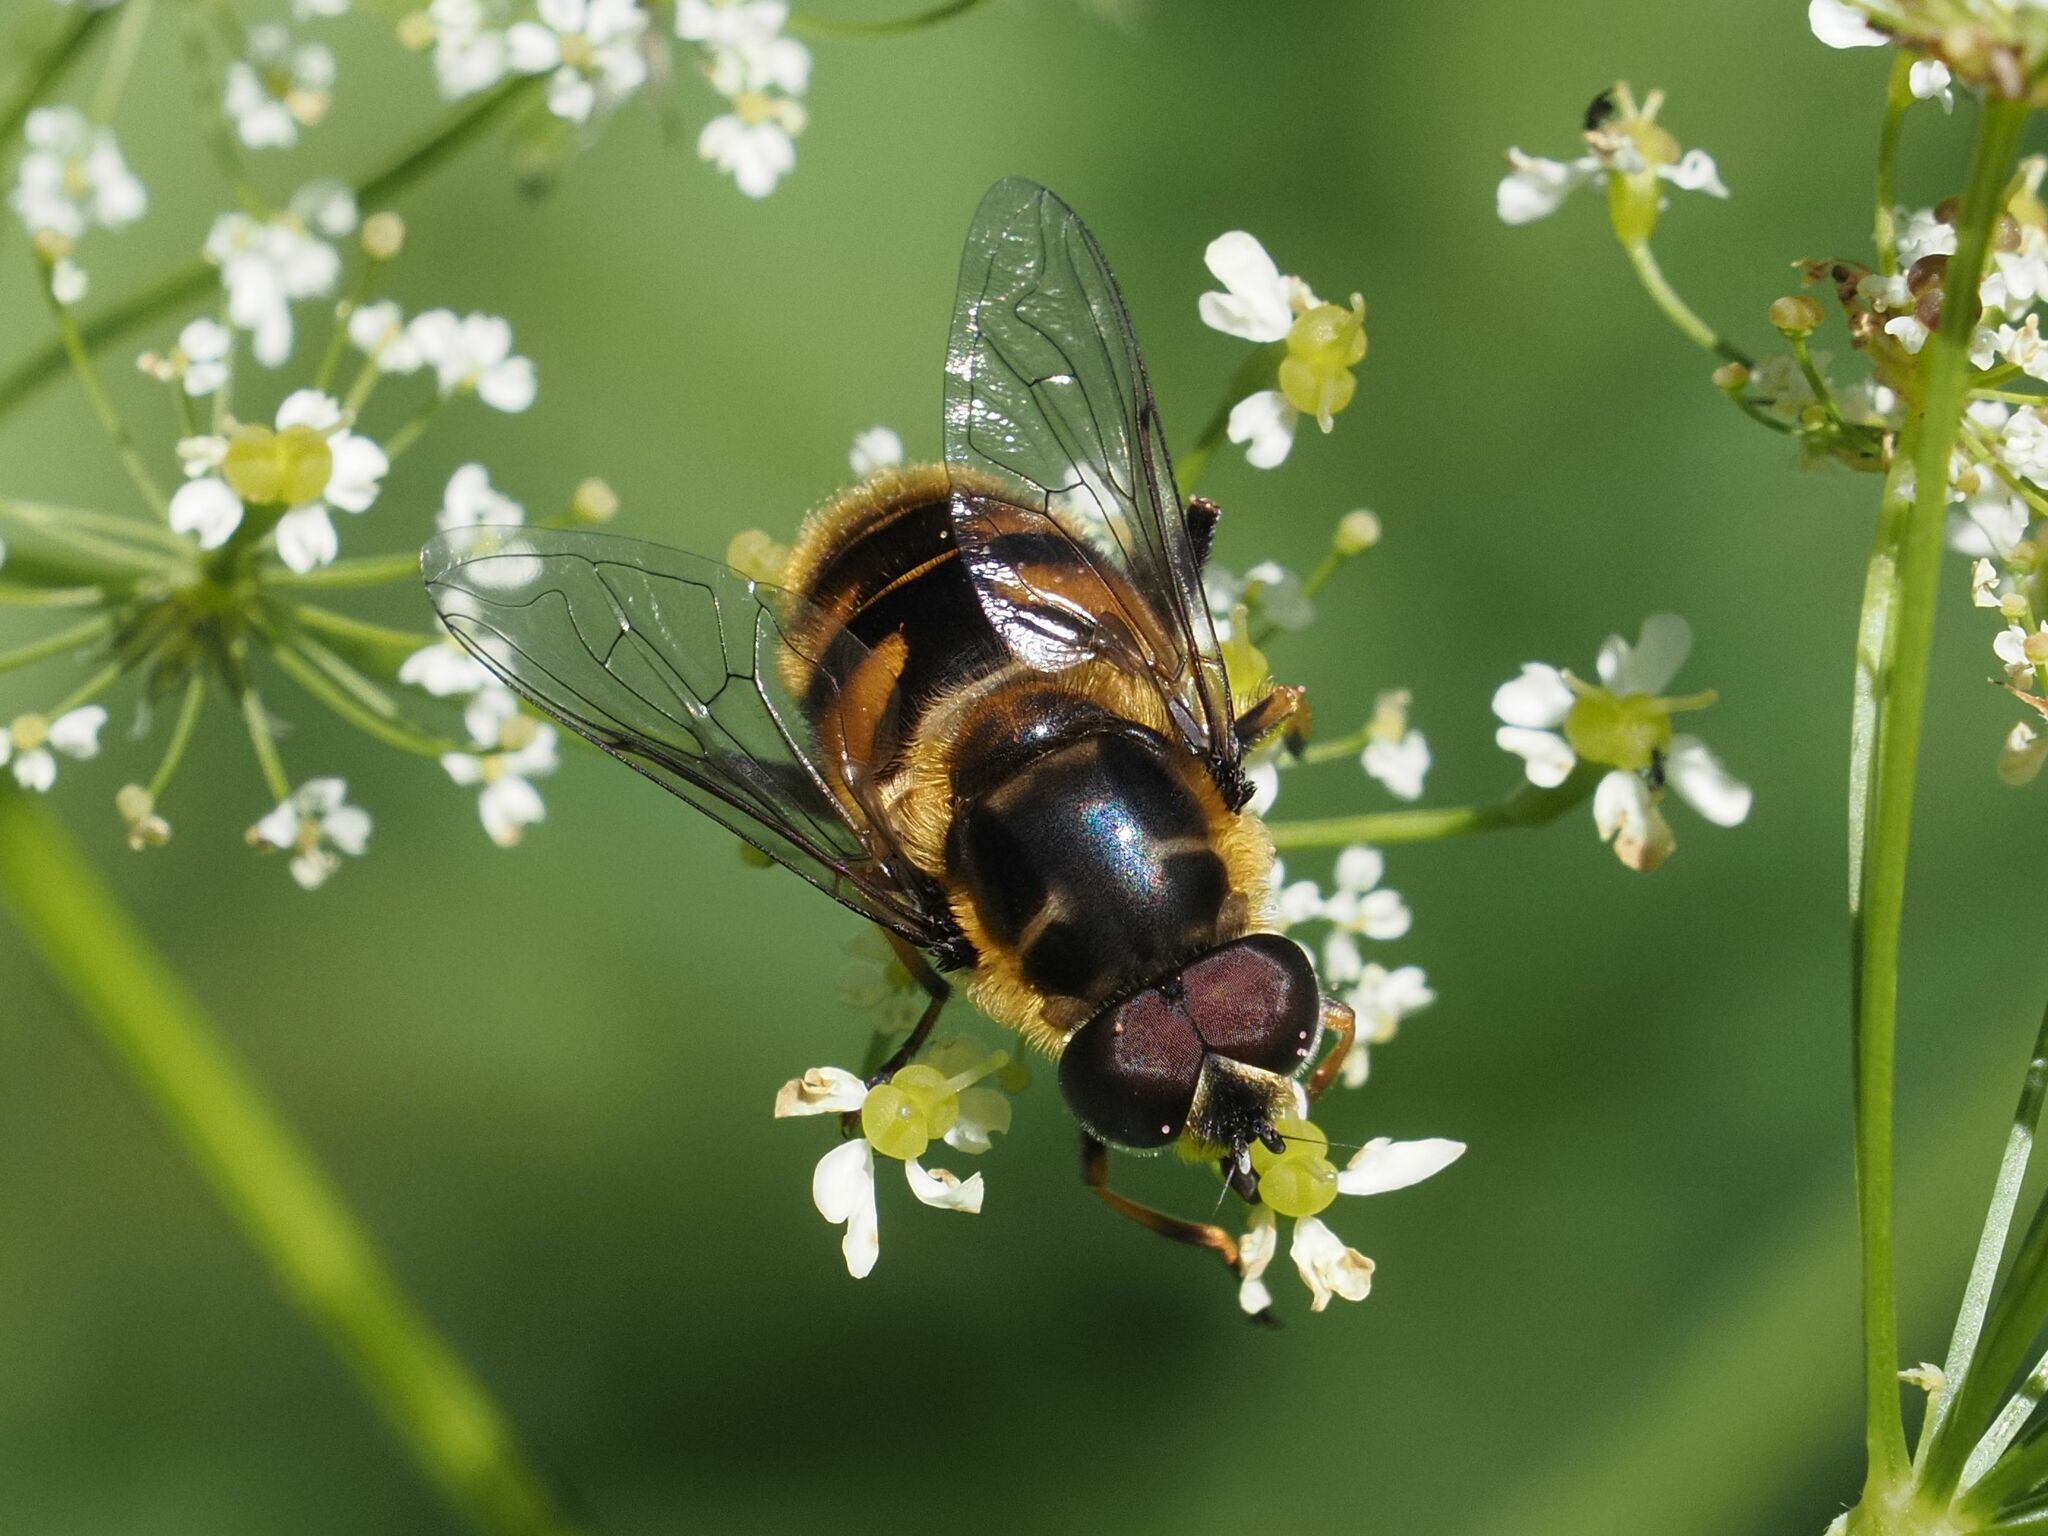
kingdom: Animalia
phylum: Arthropoda
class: Insecta
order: Diptera
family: Syrphidae
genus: Myathropa
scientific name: Myathropa florea
